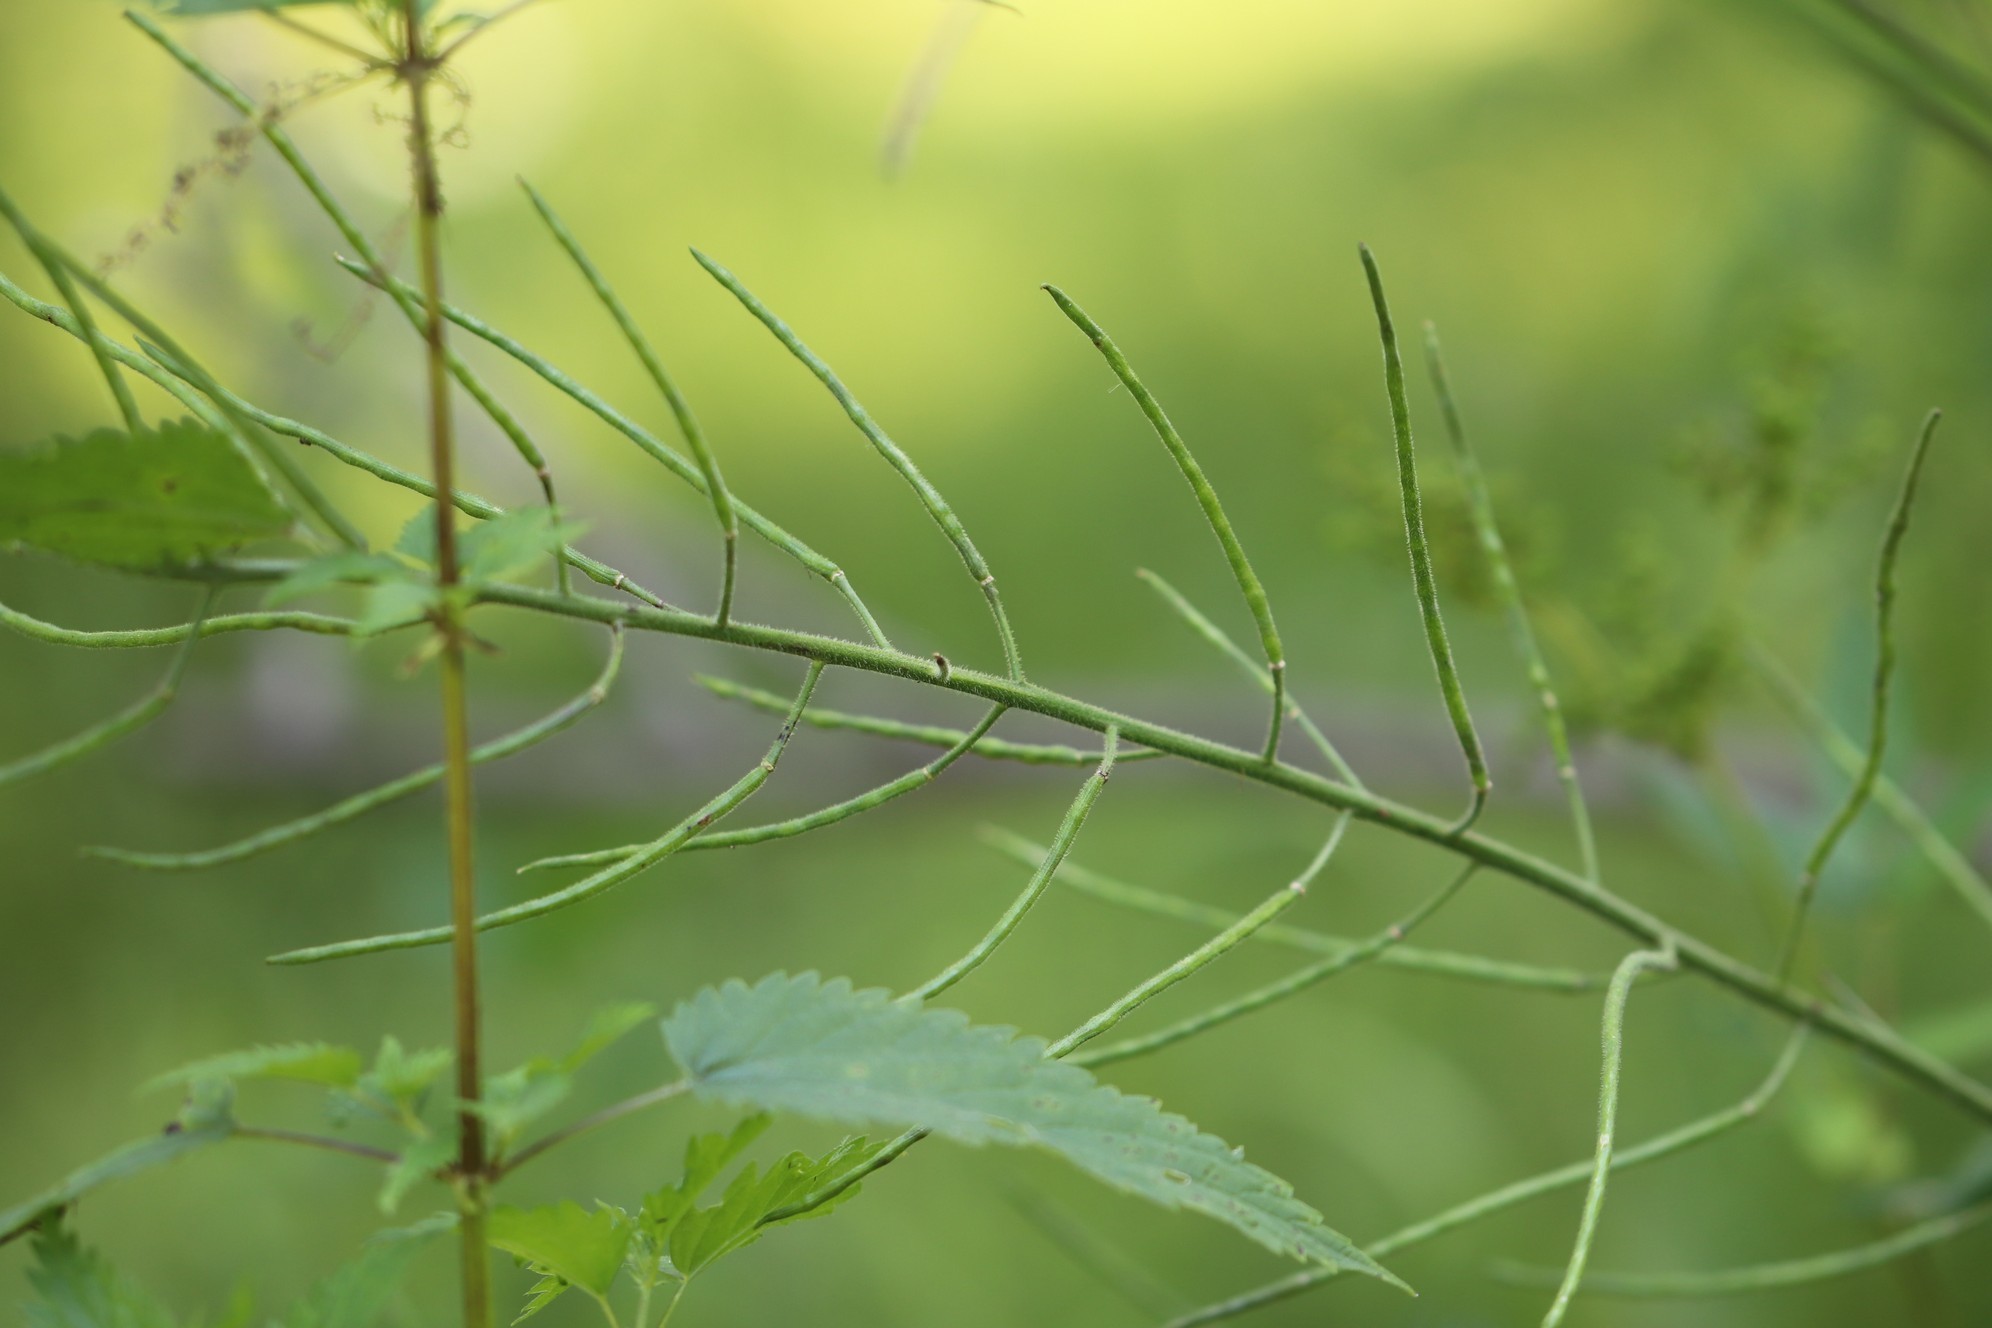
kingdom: Plantae
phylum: Tracheophyta
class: Magnoliopsida
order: Brassicales
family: Brassicaceae
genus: Hesperis
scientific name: Hesperis sibirica
